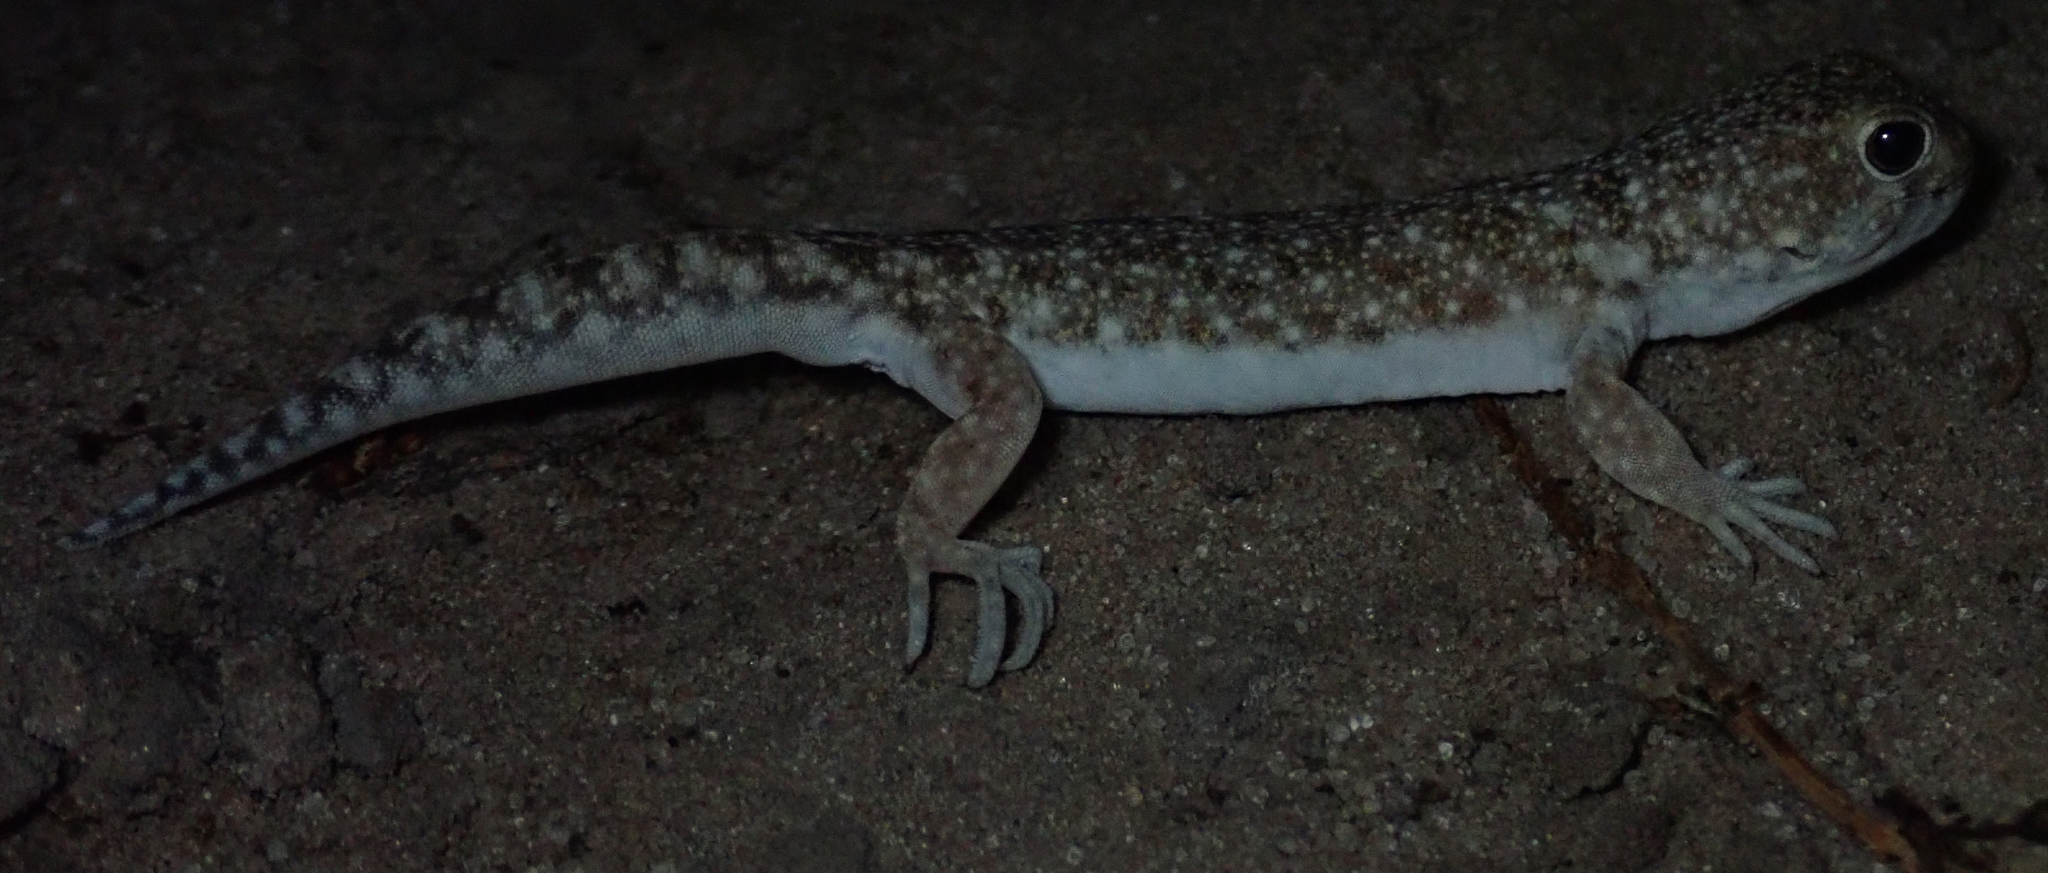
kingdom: Animalia
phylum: Chordata
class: Squamata
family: Gekkonidae
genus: Ptenopus
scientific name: Ptenopus garrulus
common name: Whistling gecko
